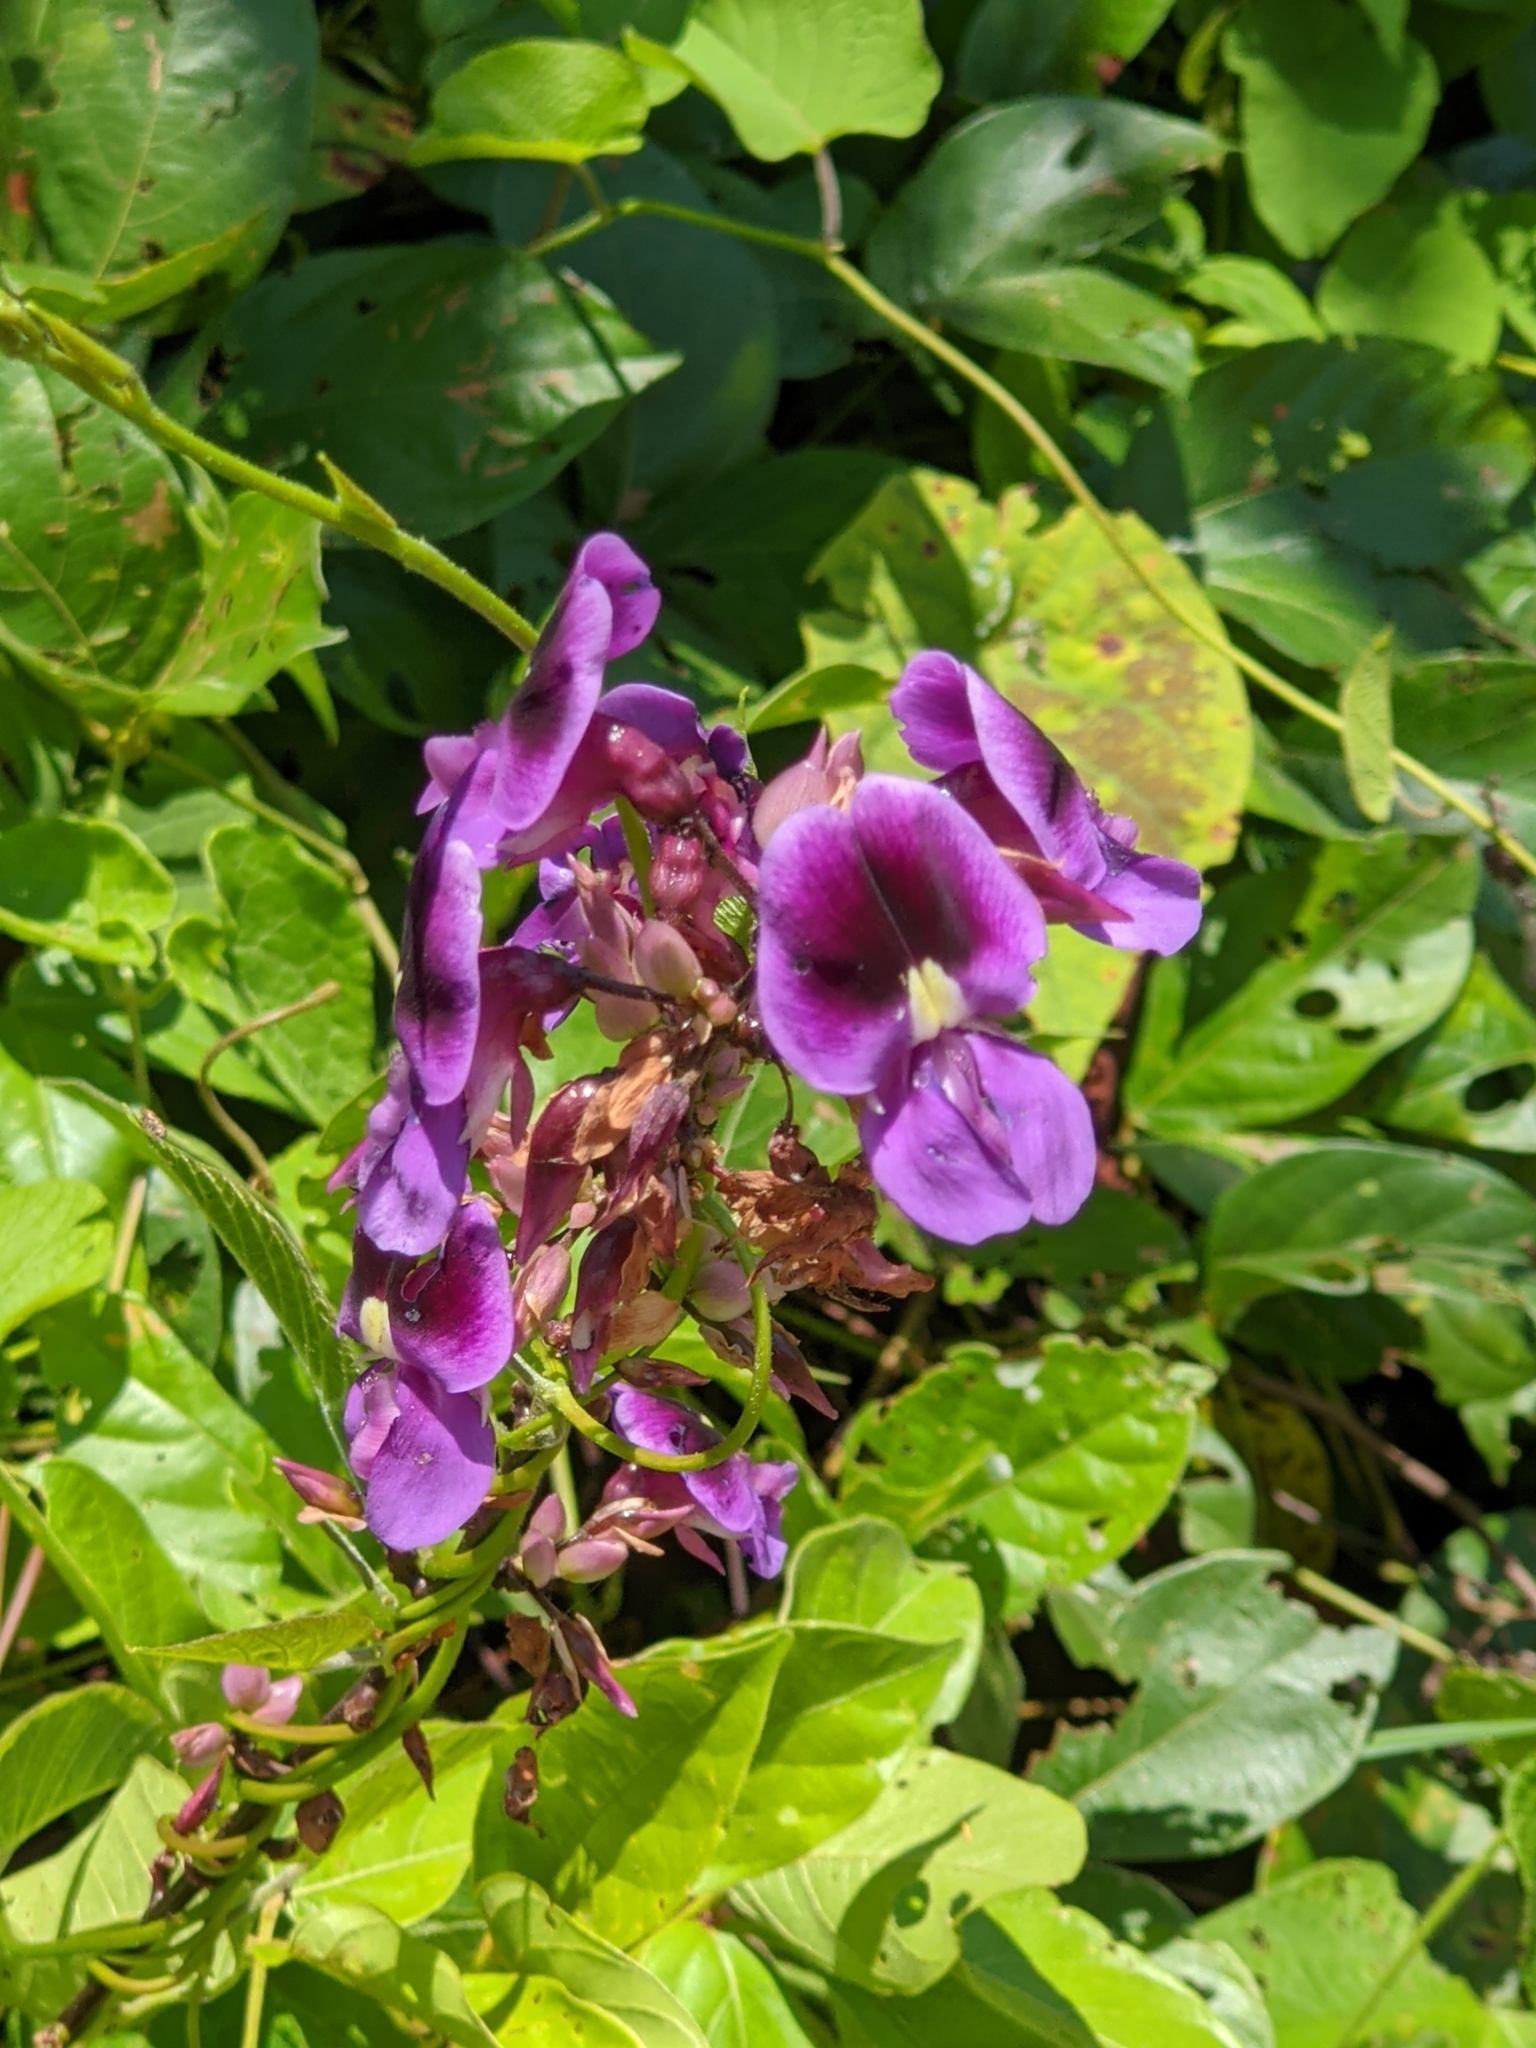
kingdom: Plantae
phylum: Tracheophyta
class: Magnoliopsida
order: Fabales
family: Fabaceae
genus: Dioclea
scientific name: Dioclea virgata
